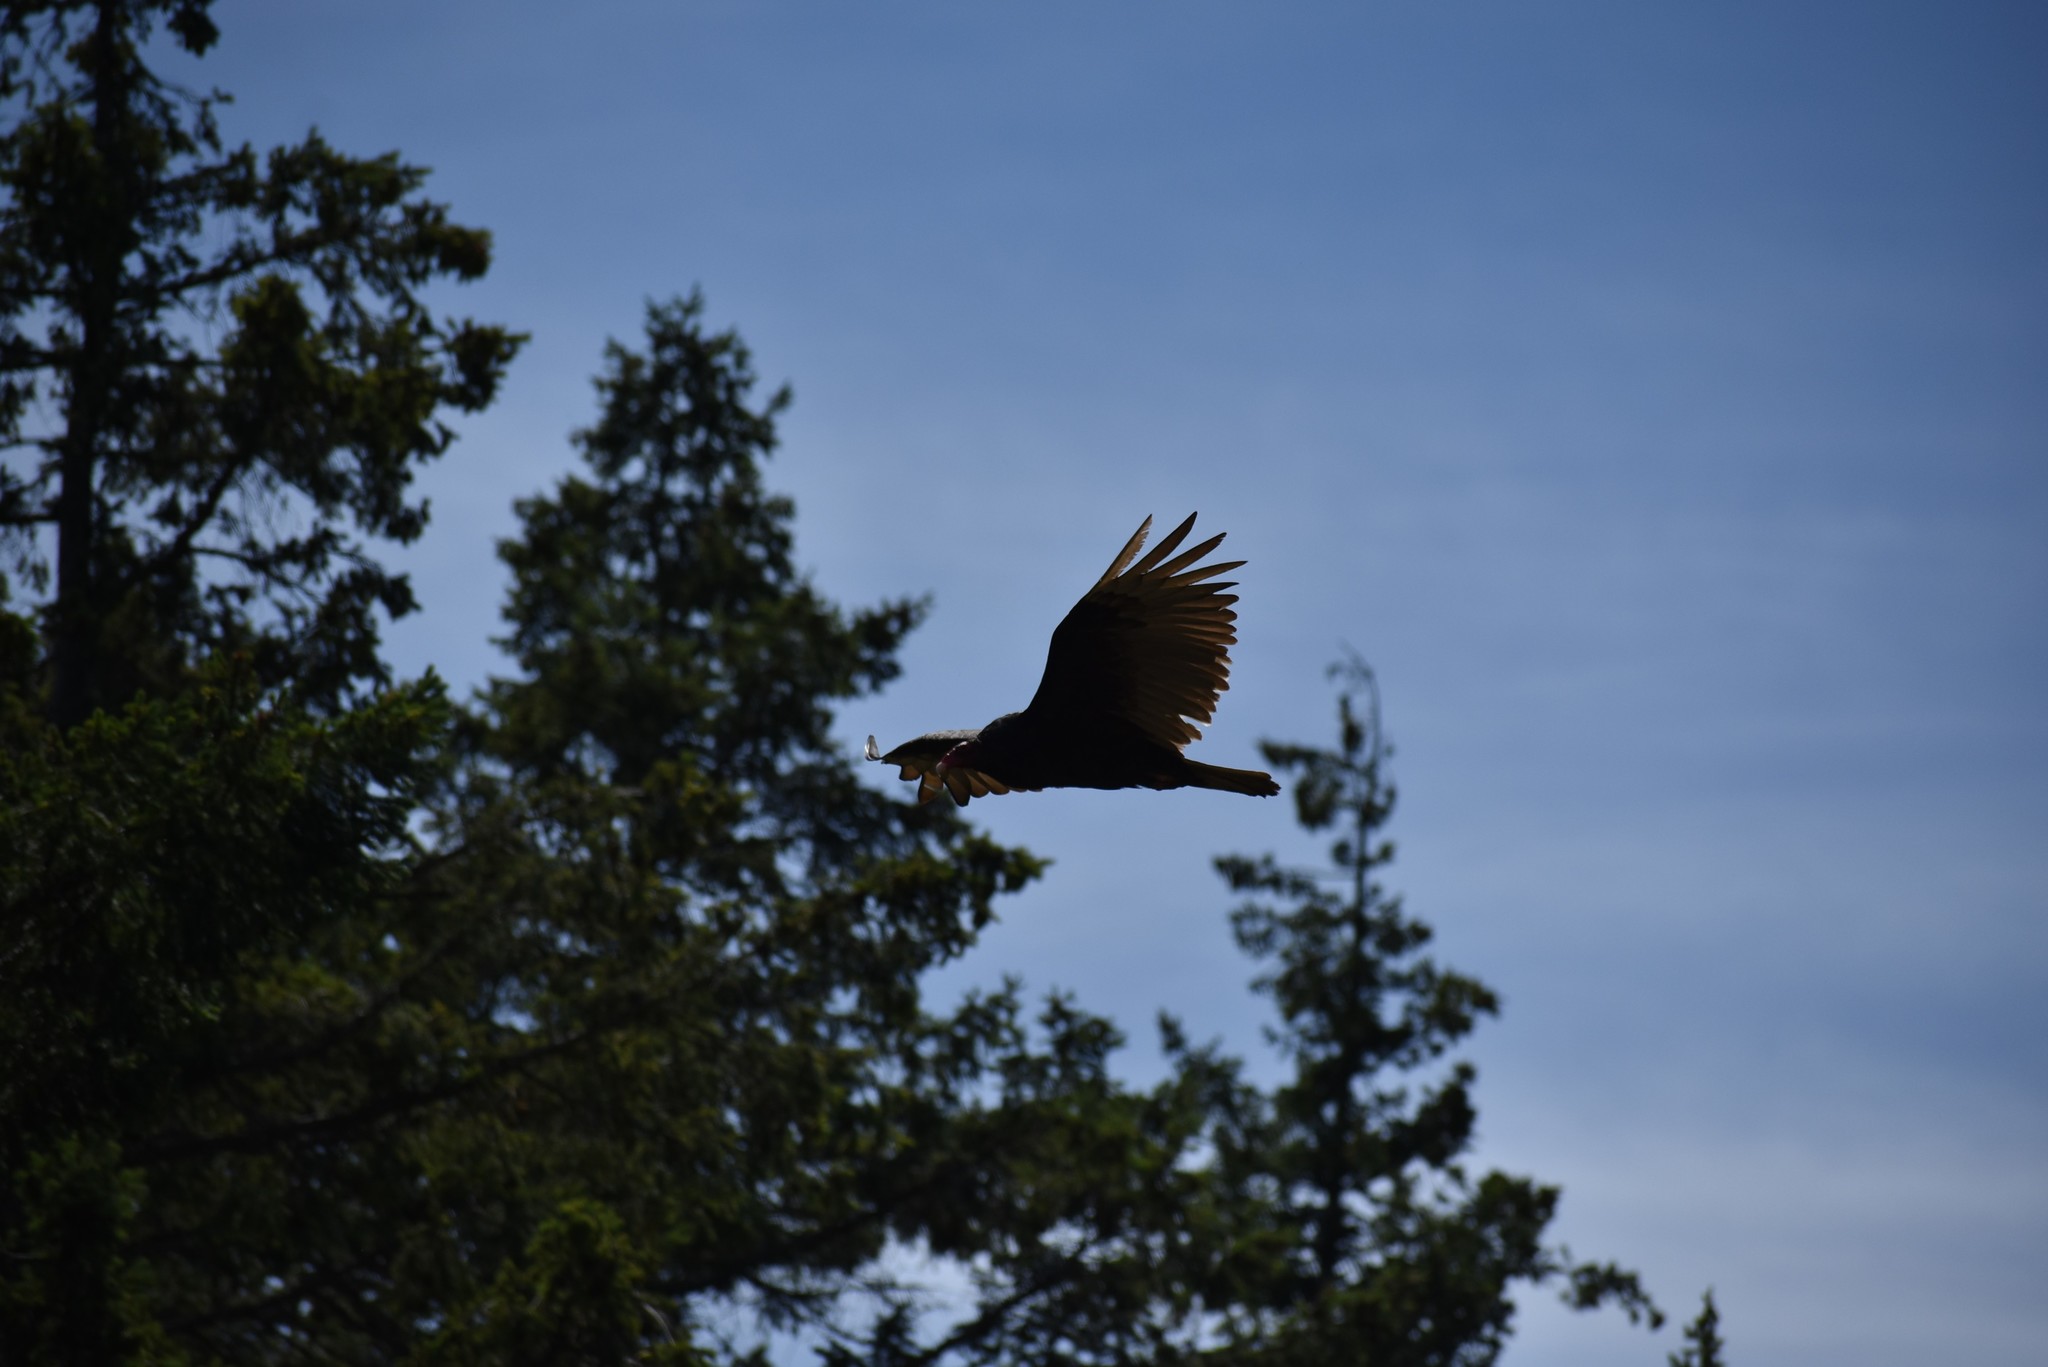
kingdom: Animalia
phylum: Chordata
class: Aves
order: Accipitriformes
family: Cathartidae
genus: Cathartes
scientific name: Cathartes aura
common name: Turkey vulture
